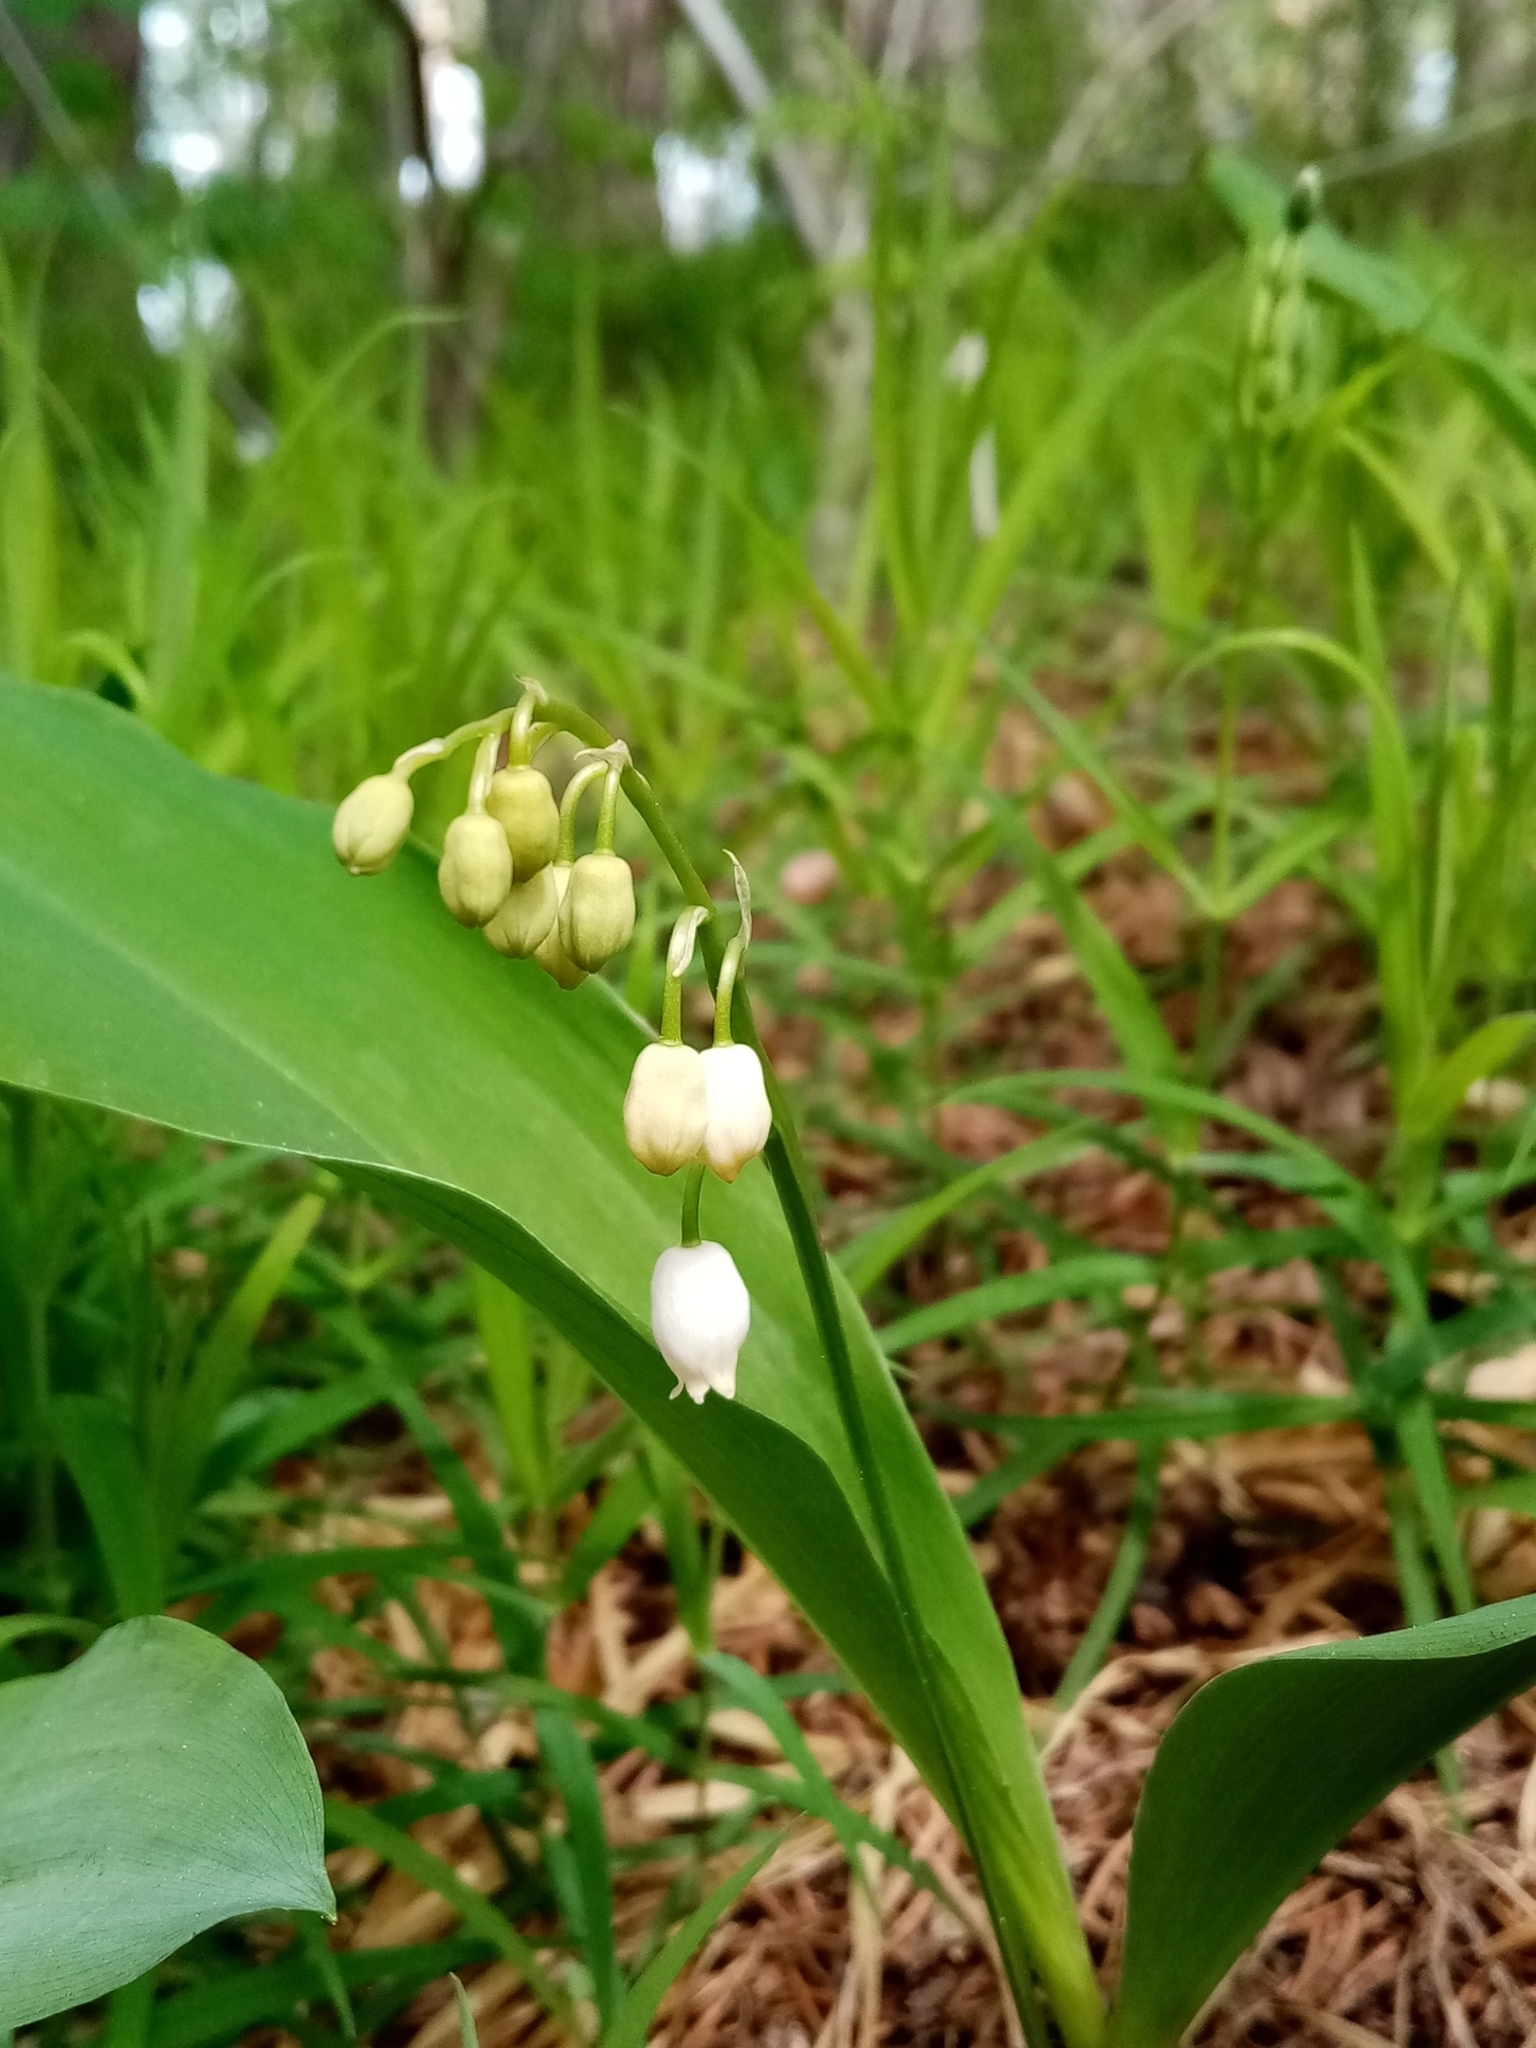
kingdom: Plantae
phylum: Tracheophyta
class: Liliopsida
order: Asparagales
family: Asparagaceae
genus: Convallaria
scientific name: Convallaria majalis
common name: Lily-of-the-valley
